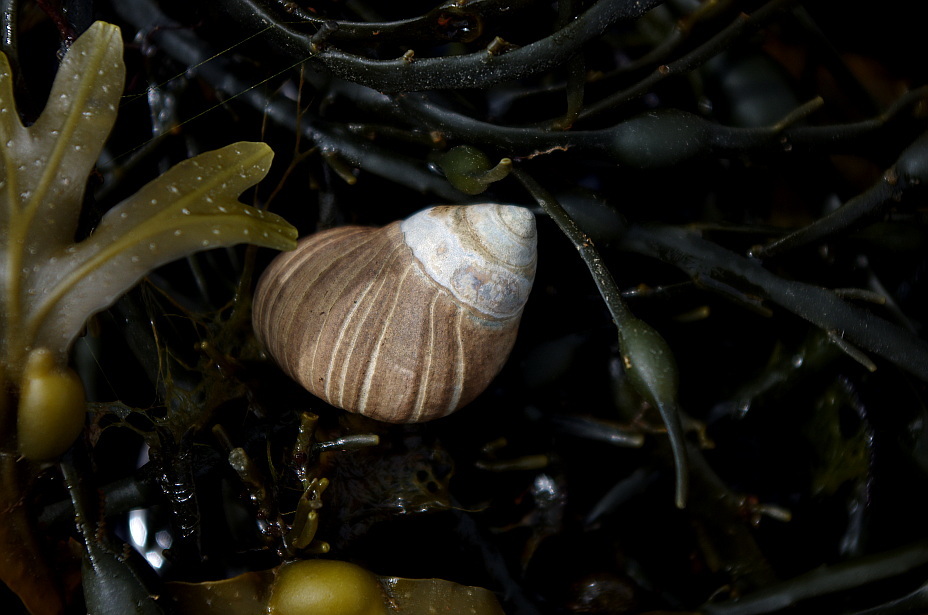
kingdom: Animalia
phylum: Mollusca
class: Gastropoda
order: Littorinimorpha
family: Littorinidae
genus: Littorina
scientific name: Littorina littorea
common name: Common periwinkle
